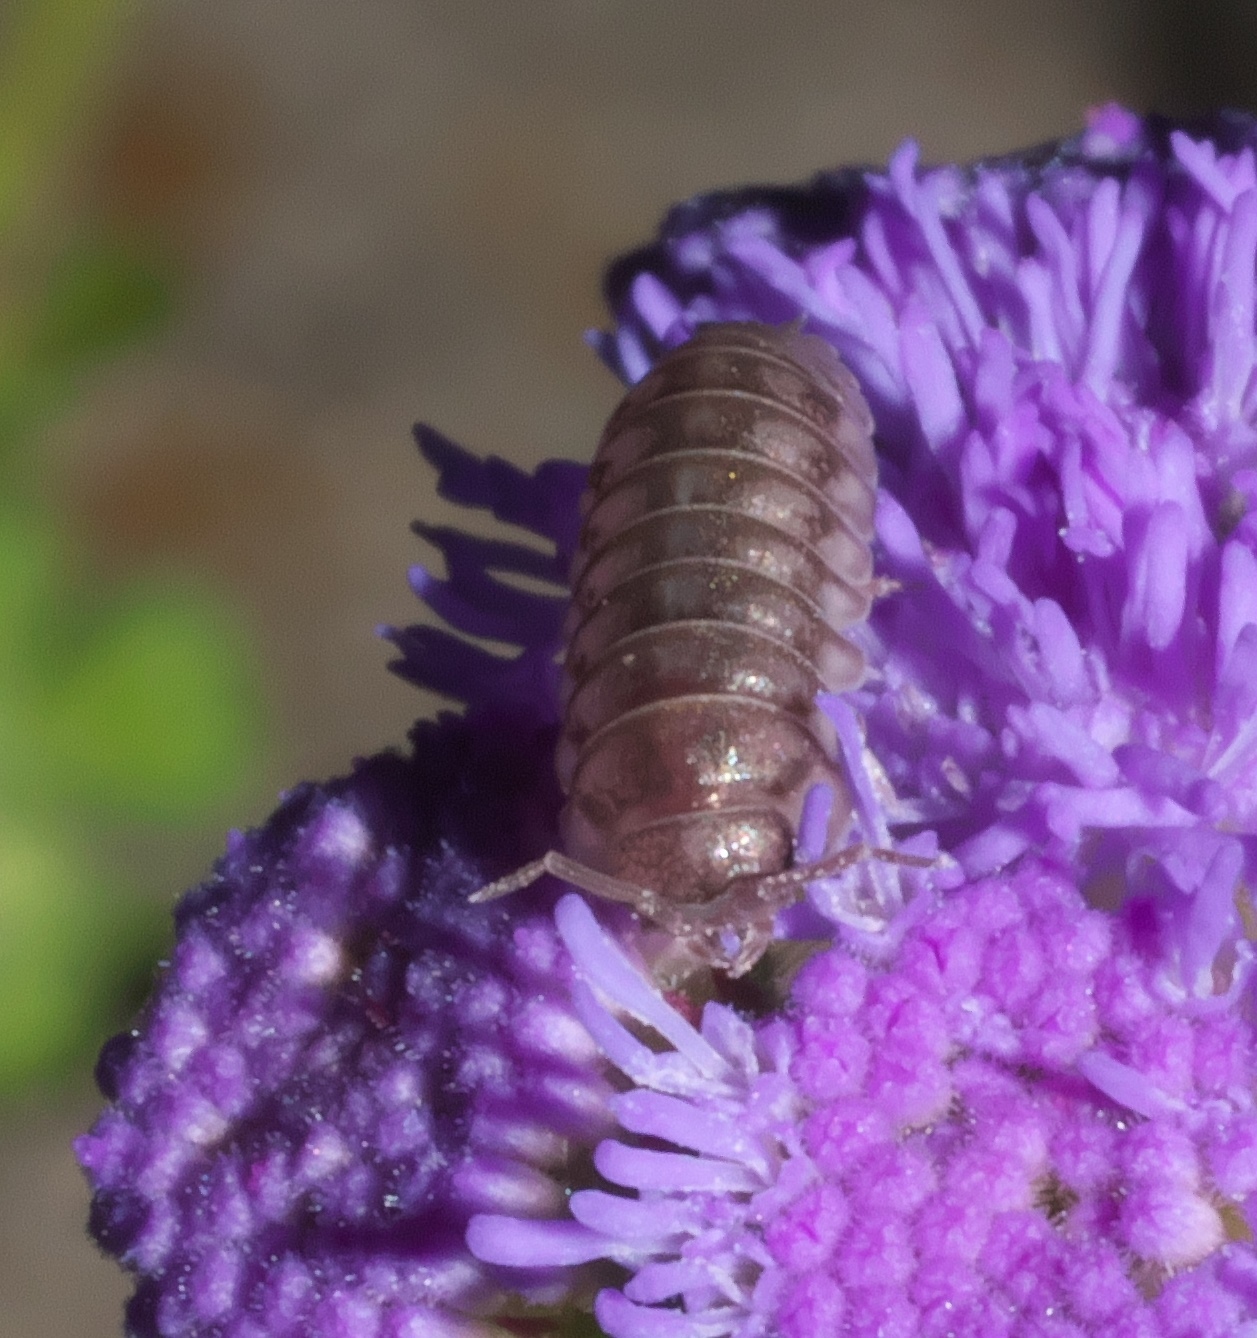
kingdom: Animalia
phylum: Arthropoda
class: Malacostraca
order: Isopoda
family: Armadillidiidae
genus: Armadillidium
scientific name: Armadillidium nasatum
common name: Isopod
